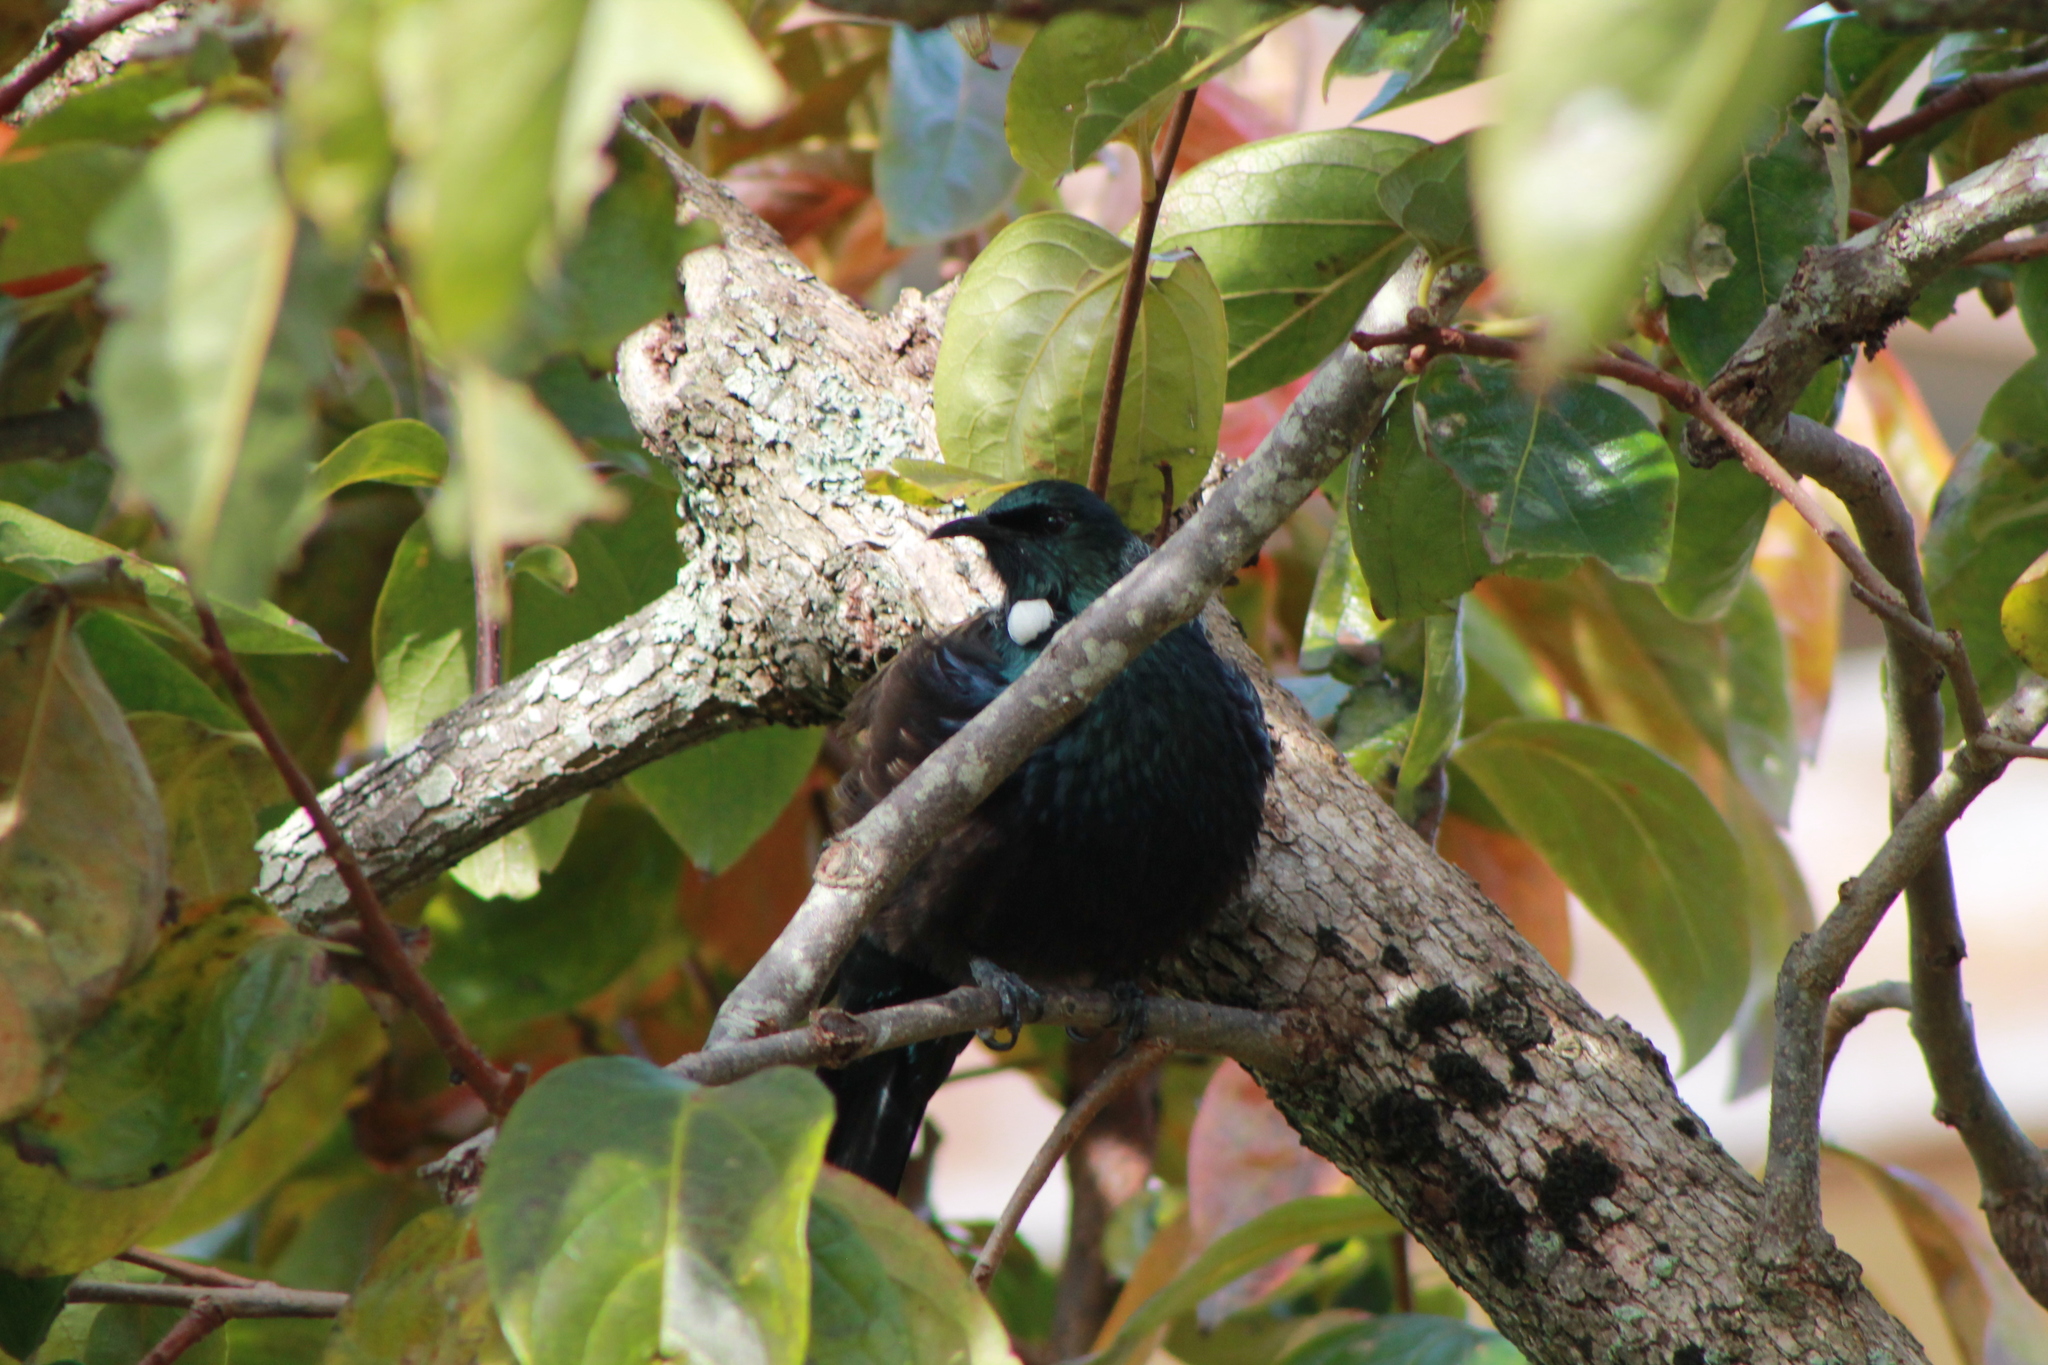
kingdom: Animalia
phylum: Chordata
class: Aves
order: Passeriformes
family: Meliphagidae
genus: Prosthemadera
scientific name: Prosthemadera novaeseelandiae
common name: Tui
